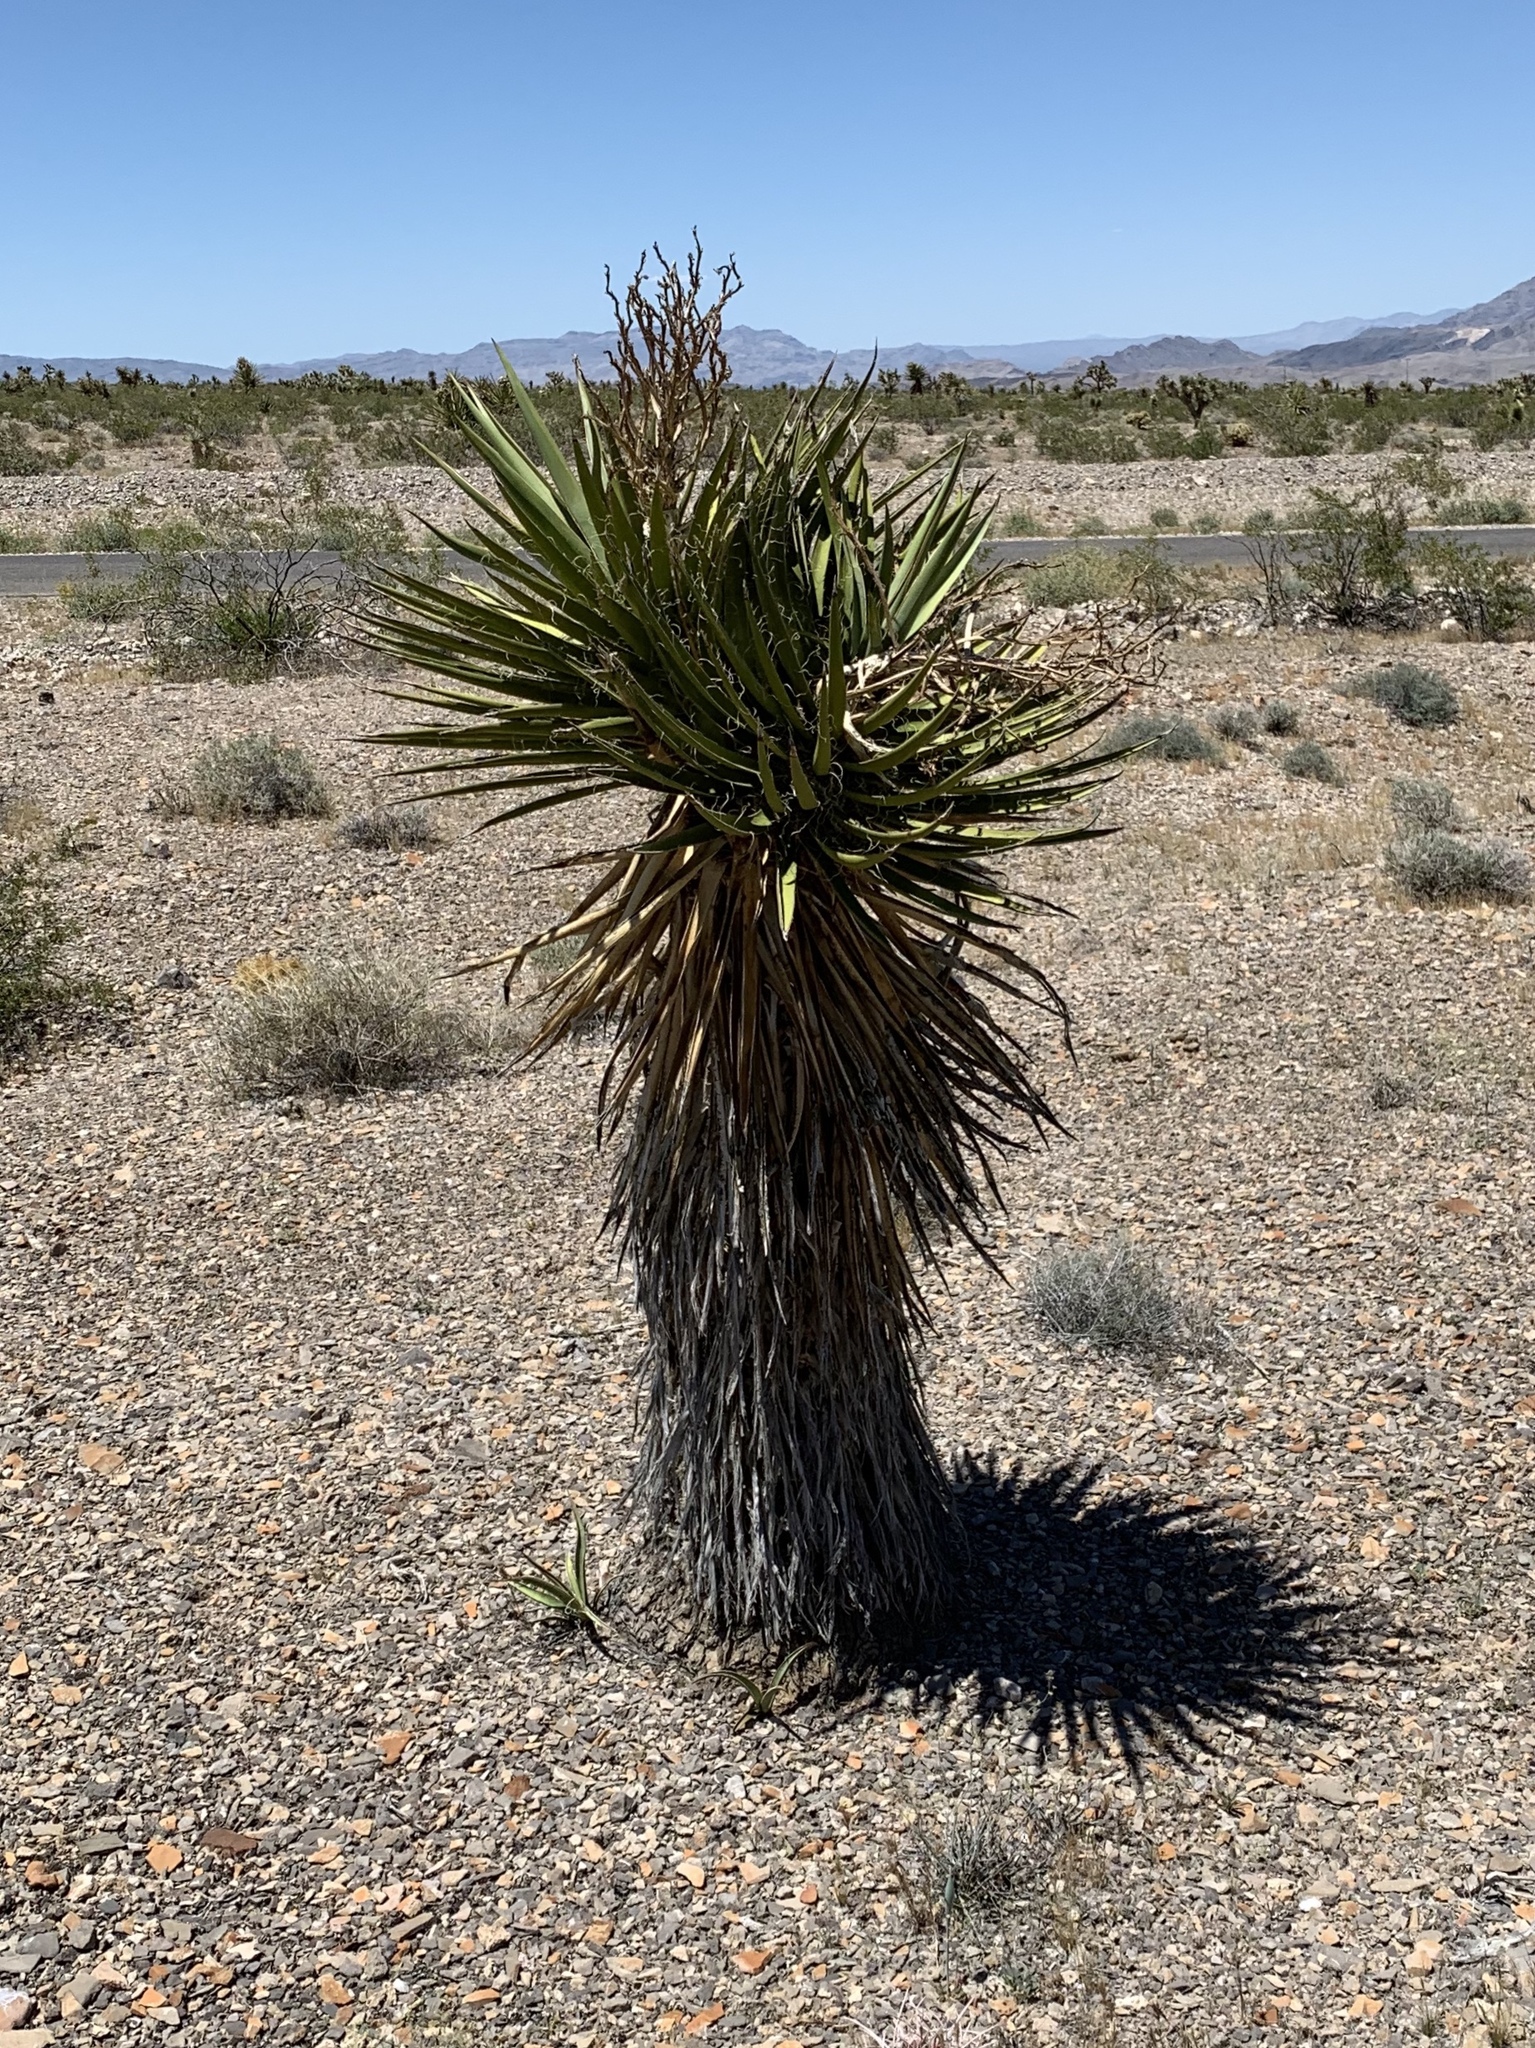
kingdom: Plantae
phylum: Tracheophyta
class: Liliopsida
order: Asparagales
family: Asparagaceae
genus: Yucca
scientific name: Yucca schidigera
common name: Mojave yucca
